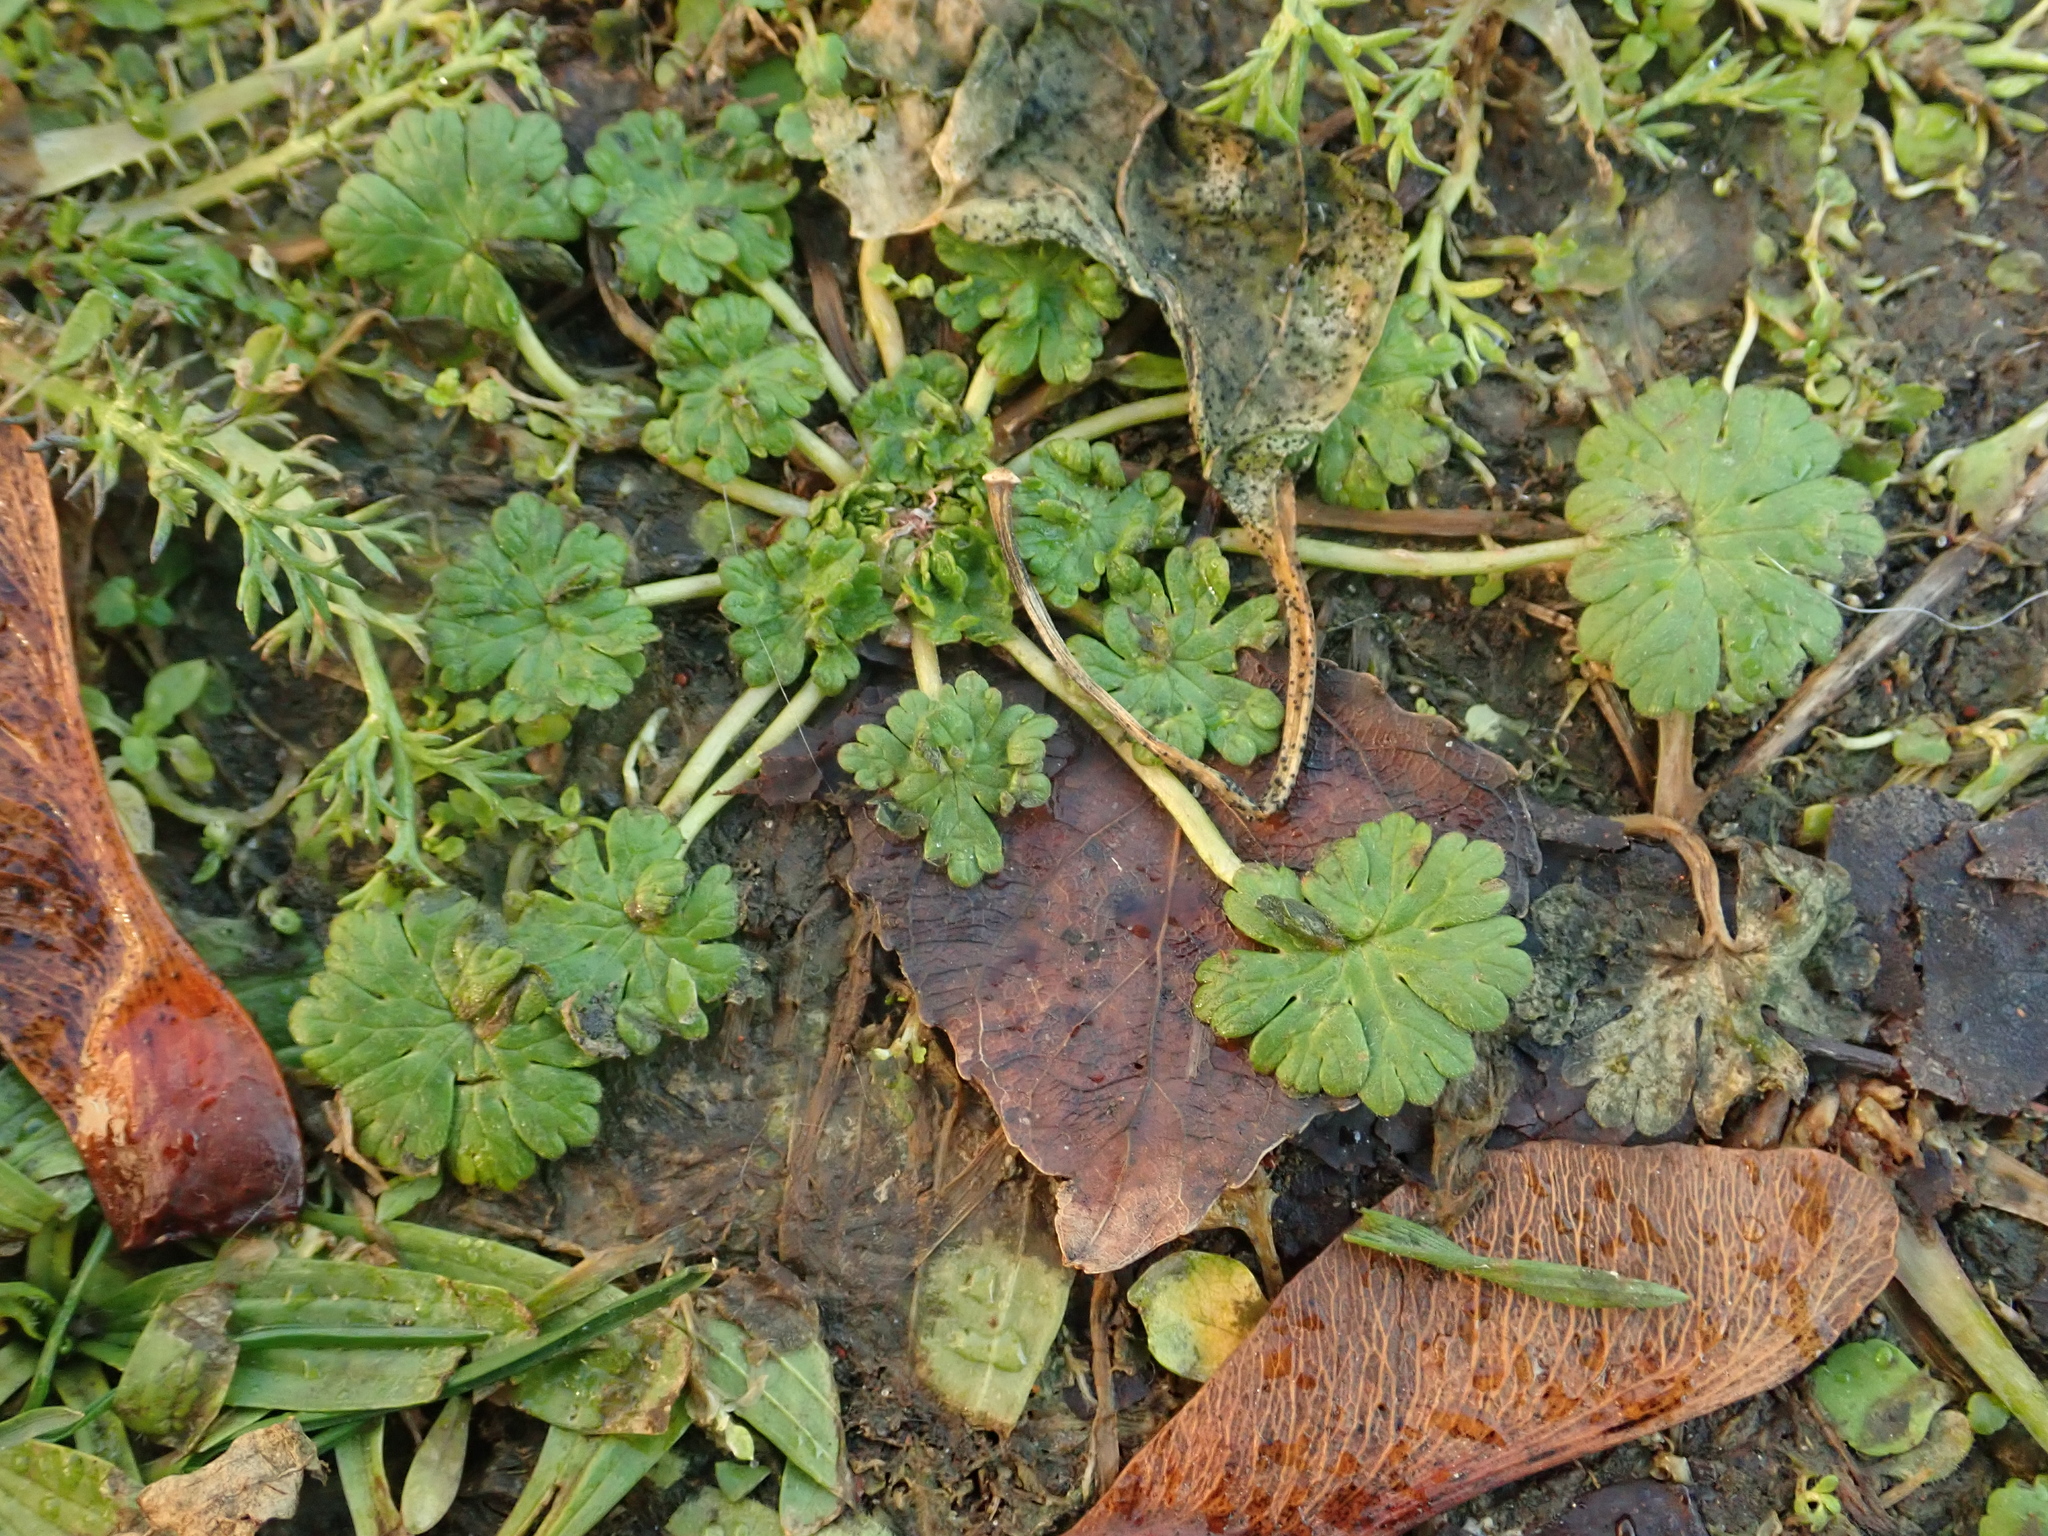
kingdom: Plantae
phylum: Tracheophyta
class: Magnoliopsida
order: Geraniales
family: Geraniaceae
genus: Geranium
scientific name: Geranium molle
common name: Dove's-foot crane's-bill
